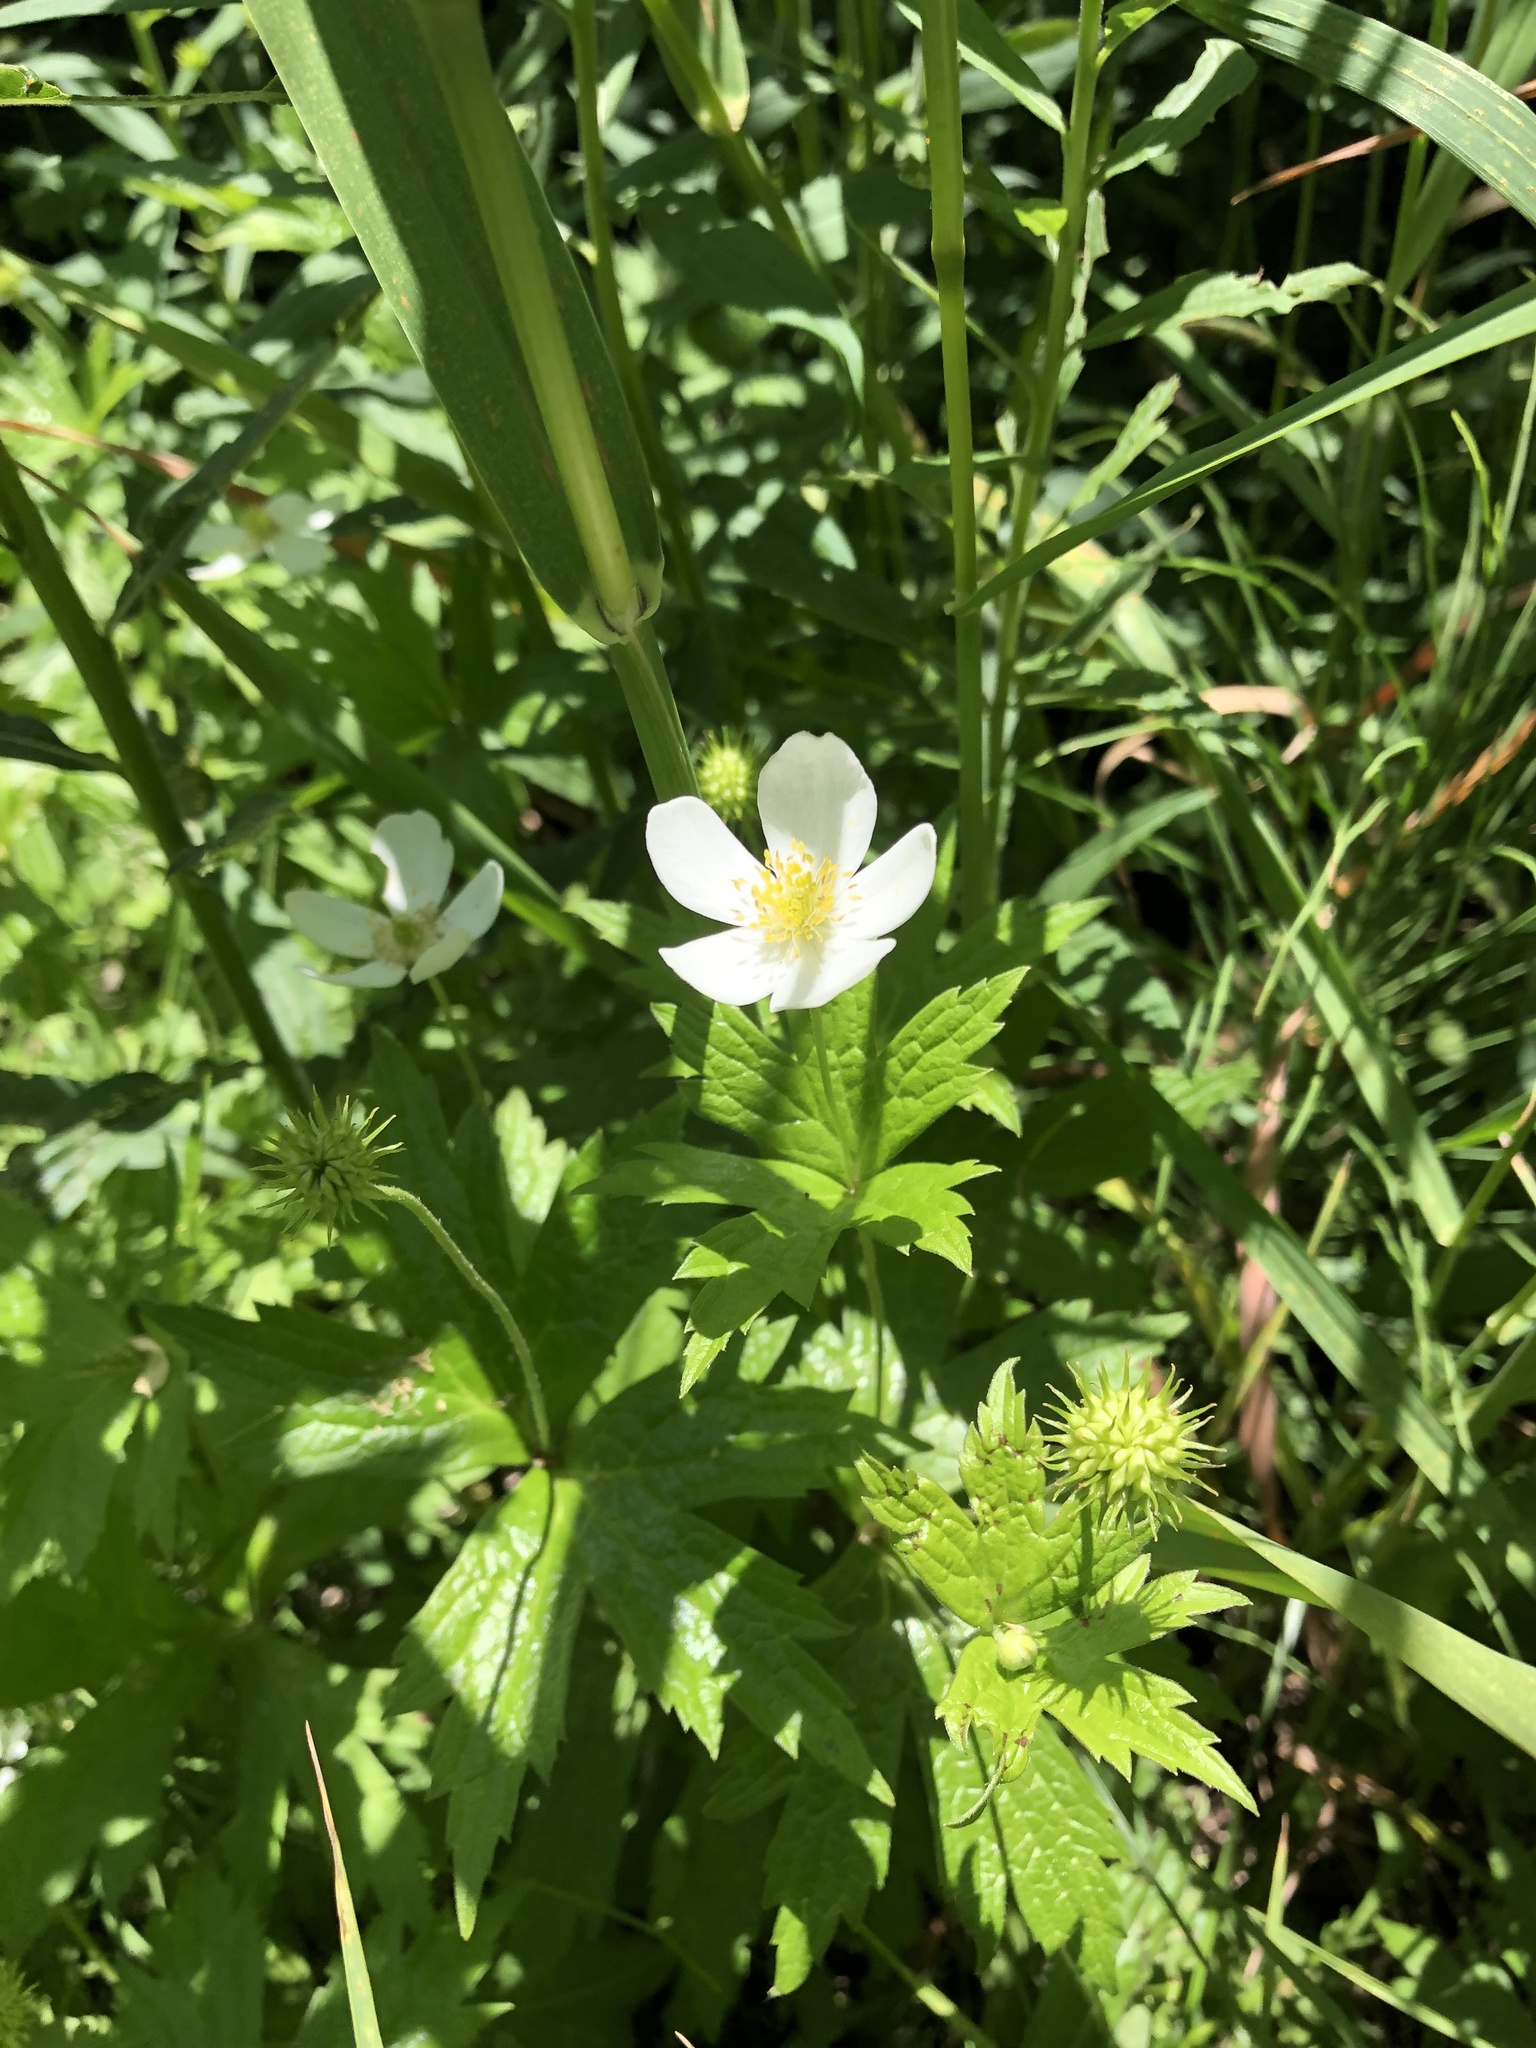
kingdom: Plantae
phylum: Tracheophyta
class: Magnoliopsida
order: Ranunculales
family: Ranunculaceae
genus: Anemonastrum
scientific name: Anemonastrum canadense
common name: Canada anemone
